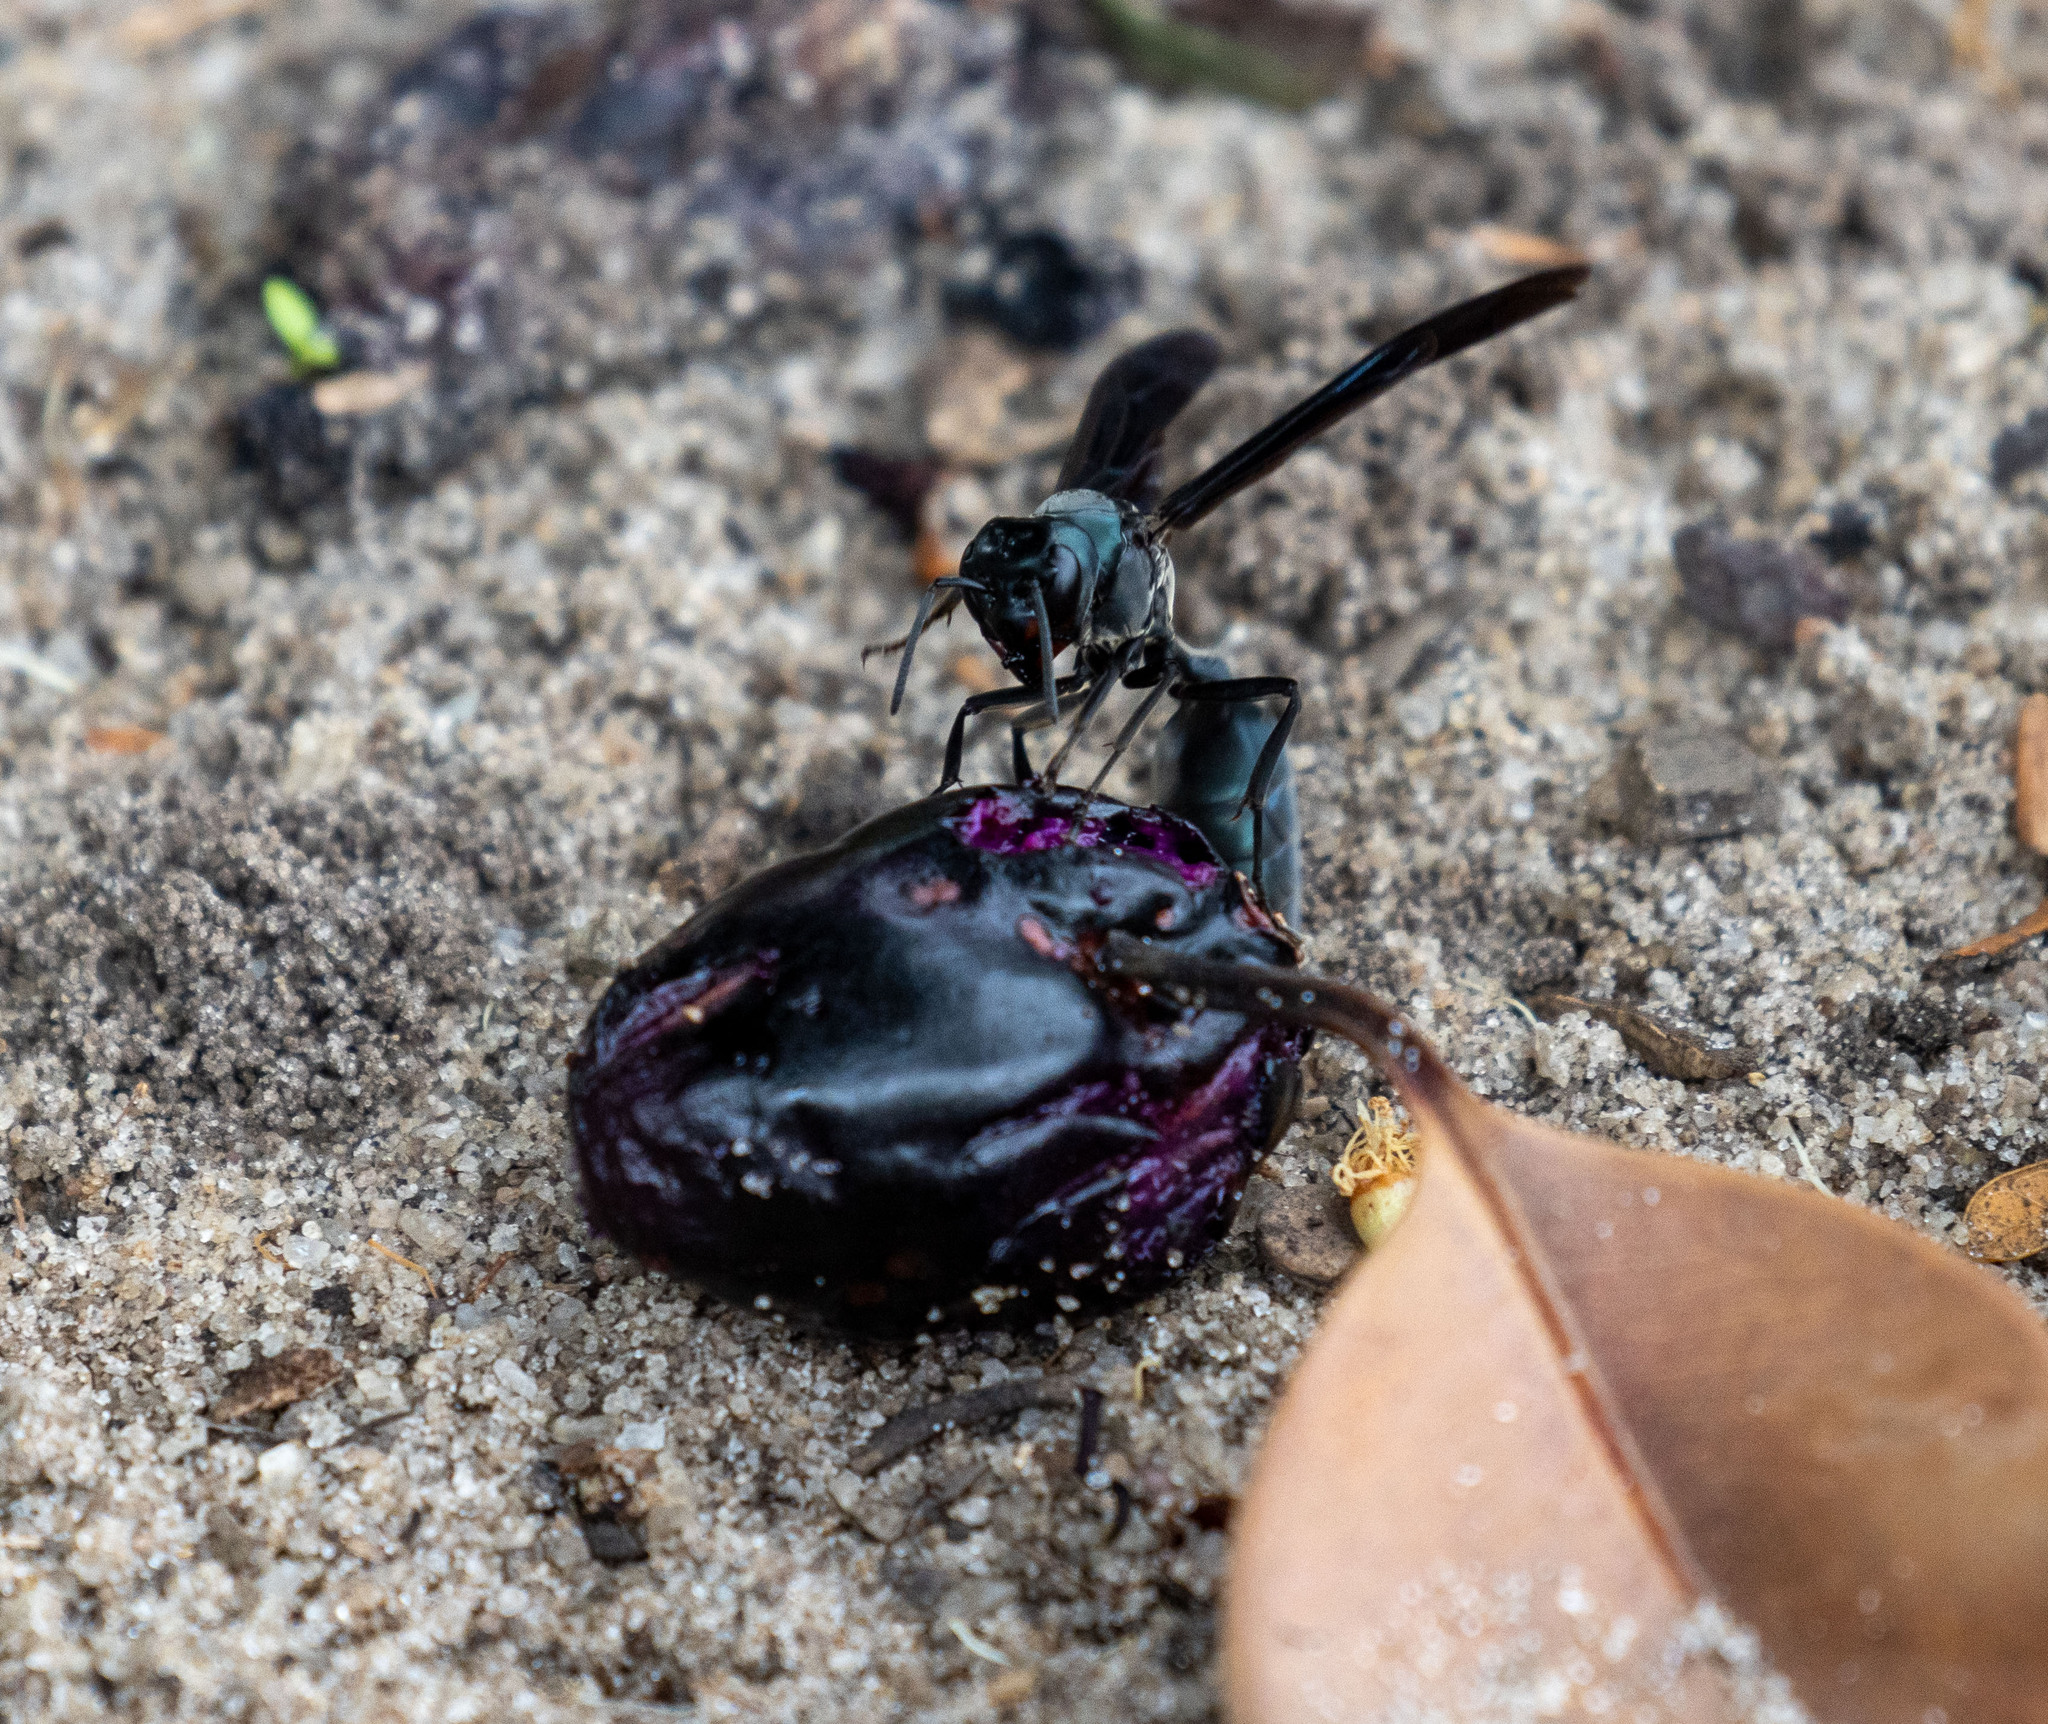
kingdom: Animalia
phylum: Arthropoda
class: Insecta
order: Hymenoptera
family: Vespidae
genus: Synoeca
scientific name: Synoeca ilheensis
